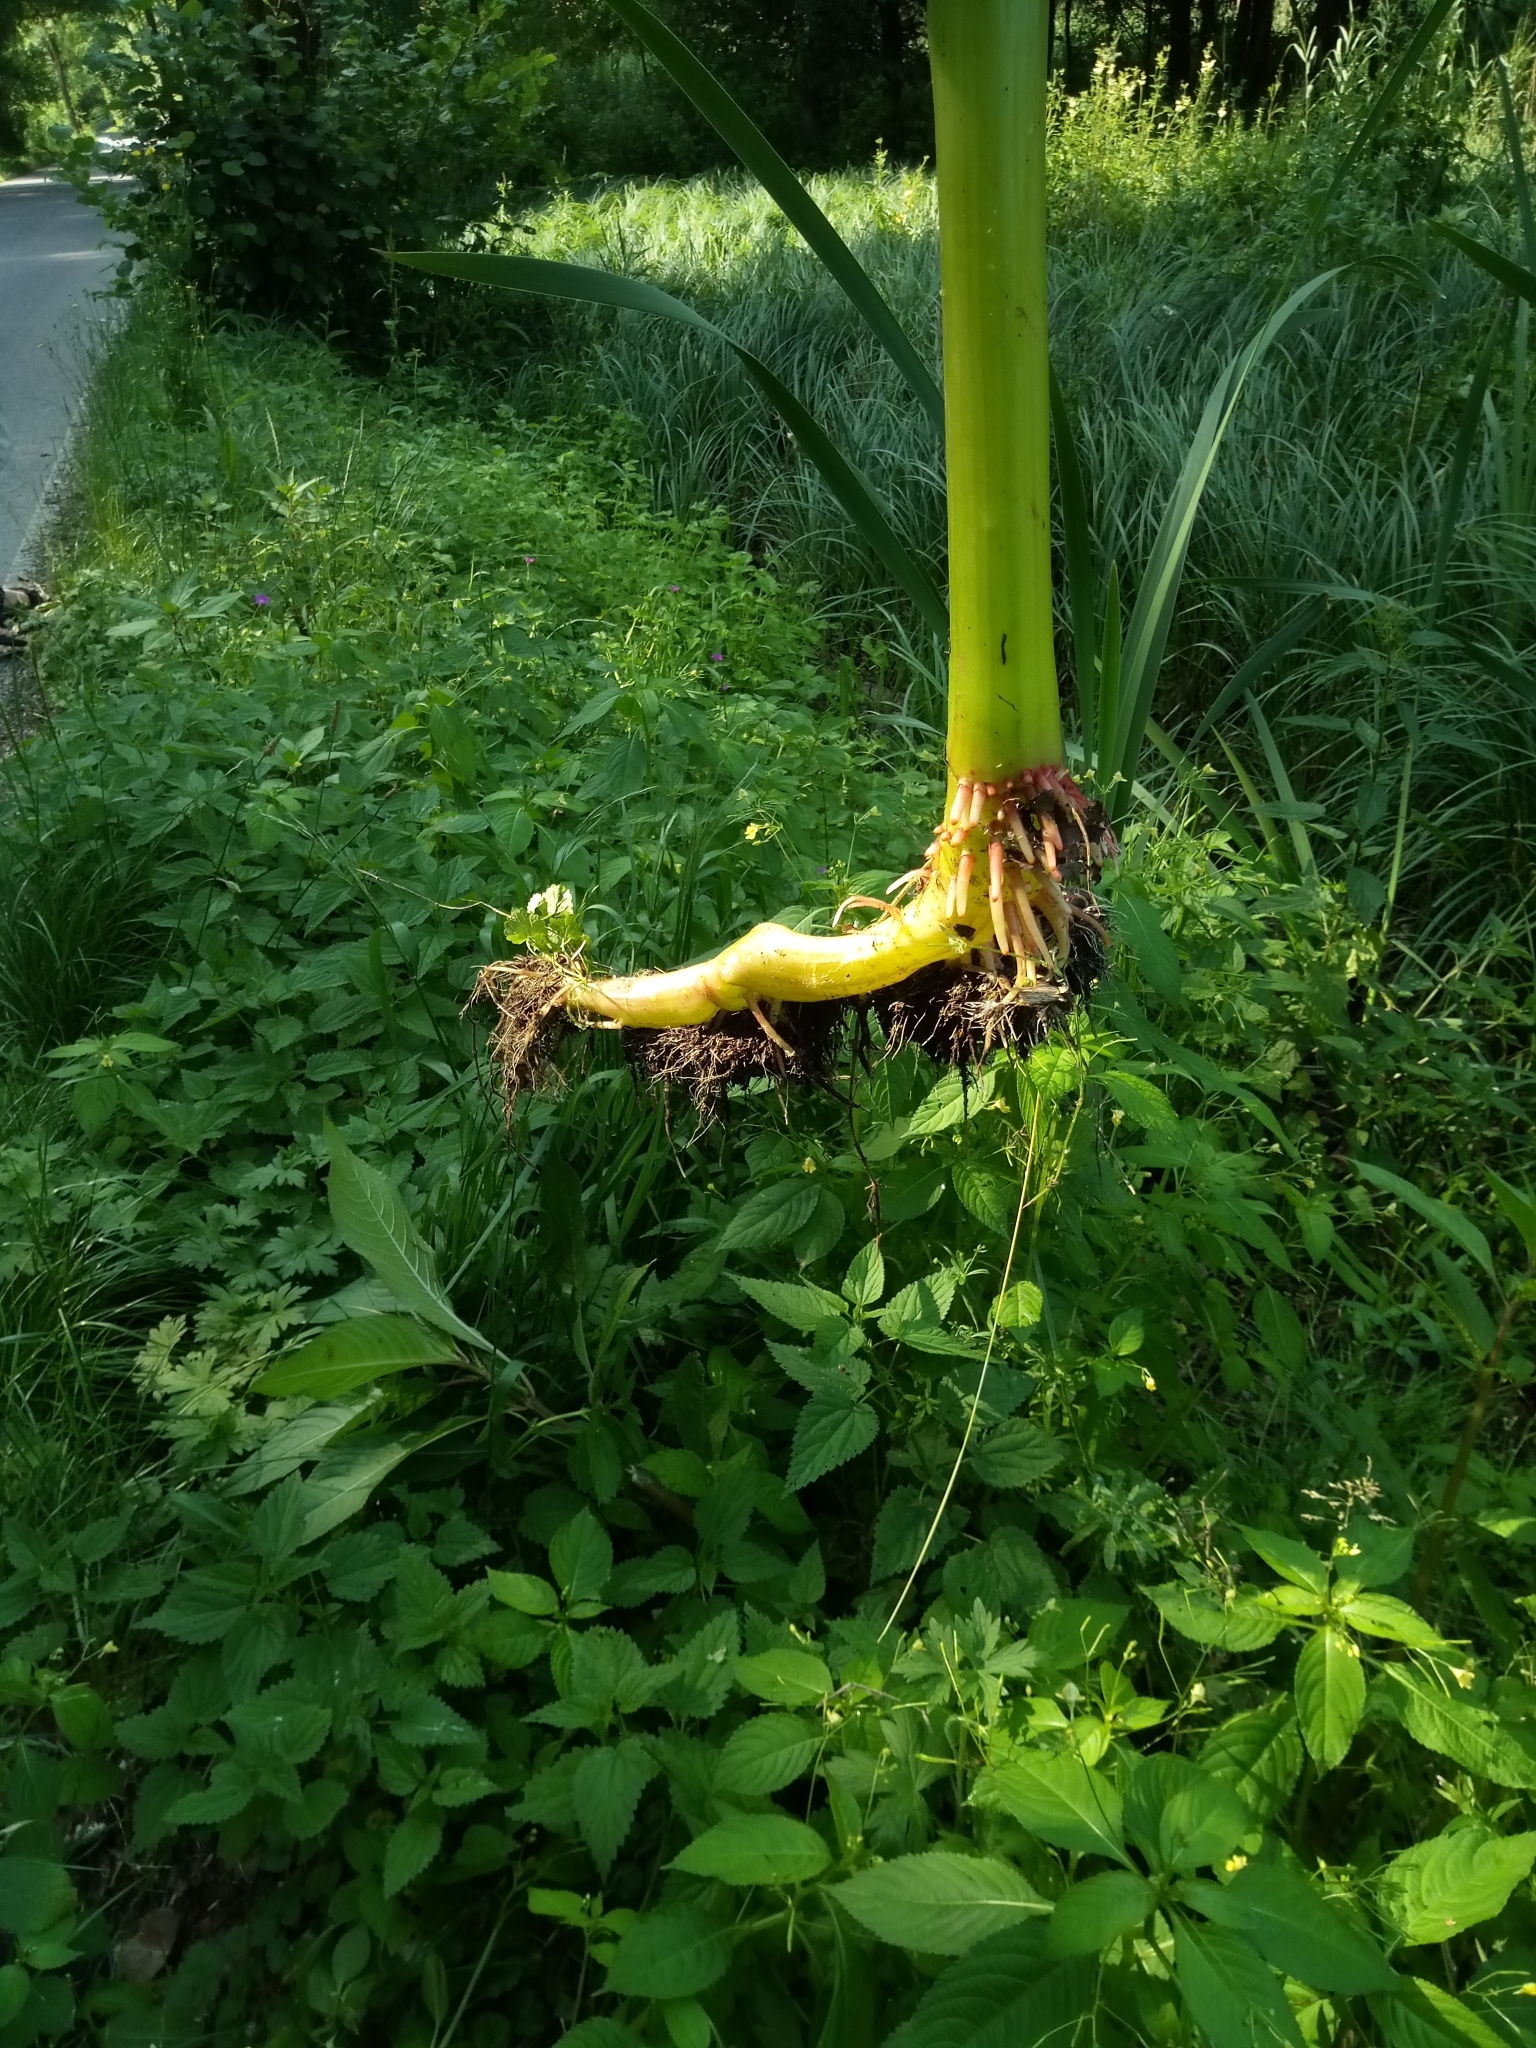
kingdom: Plantae
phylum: Tracheophyta
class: Magnoliopsida
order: Ericales
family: Balsaminaceae
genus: Impatiens
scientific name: Impatiens glandulifera
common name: Himalayan balsam
